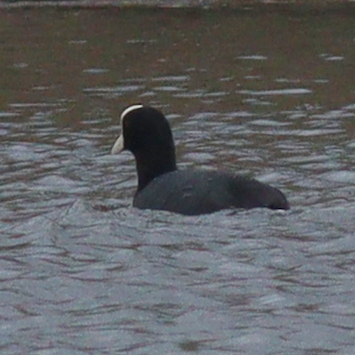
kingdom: Animalia
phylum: Chordata
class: Aves
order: Gruiformes
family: Rallidae
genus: Fulica
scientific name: Fulica atra
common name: Eurasian coot
